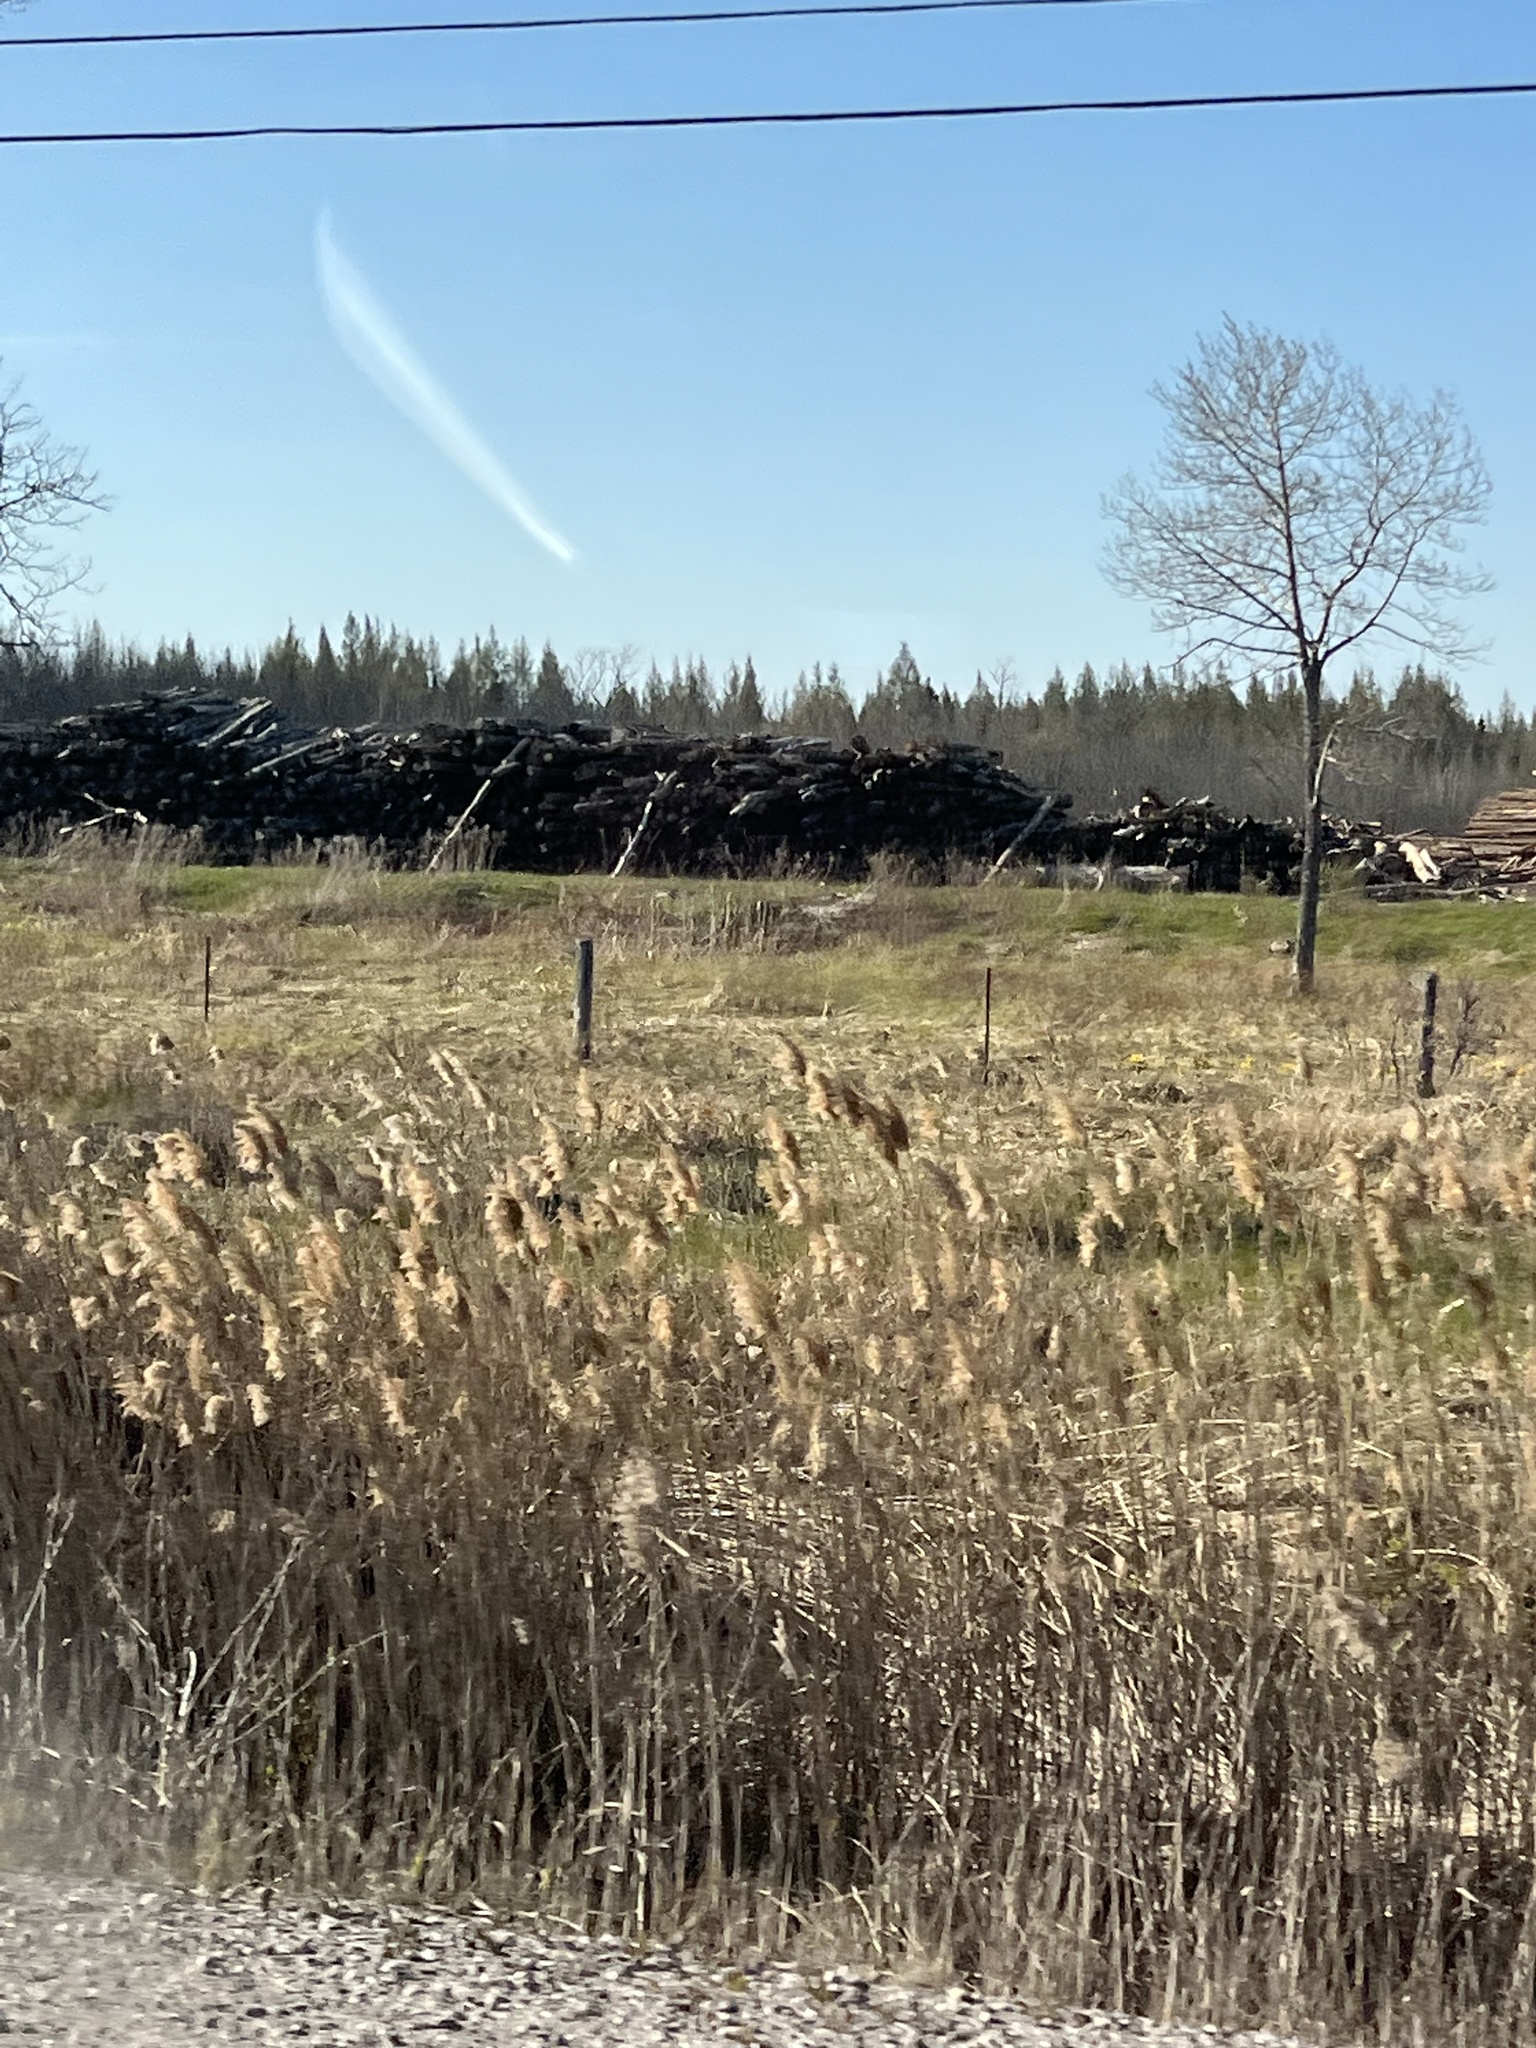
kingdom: Plantae
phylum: Tracheophyta
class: Liliopsida
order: Poales
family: Poaceae
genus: Phragmites
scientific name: Phragmites australis
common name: Common reed
